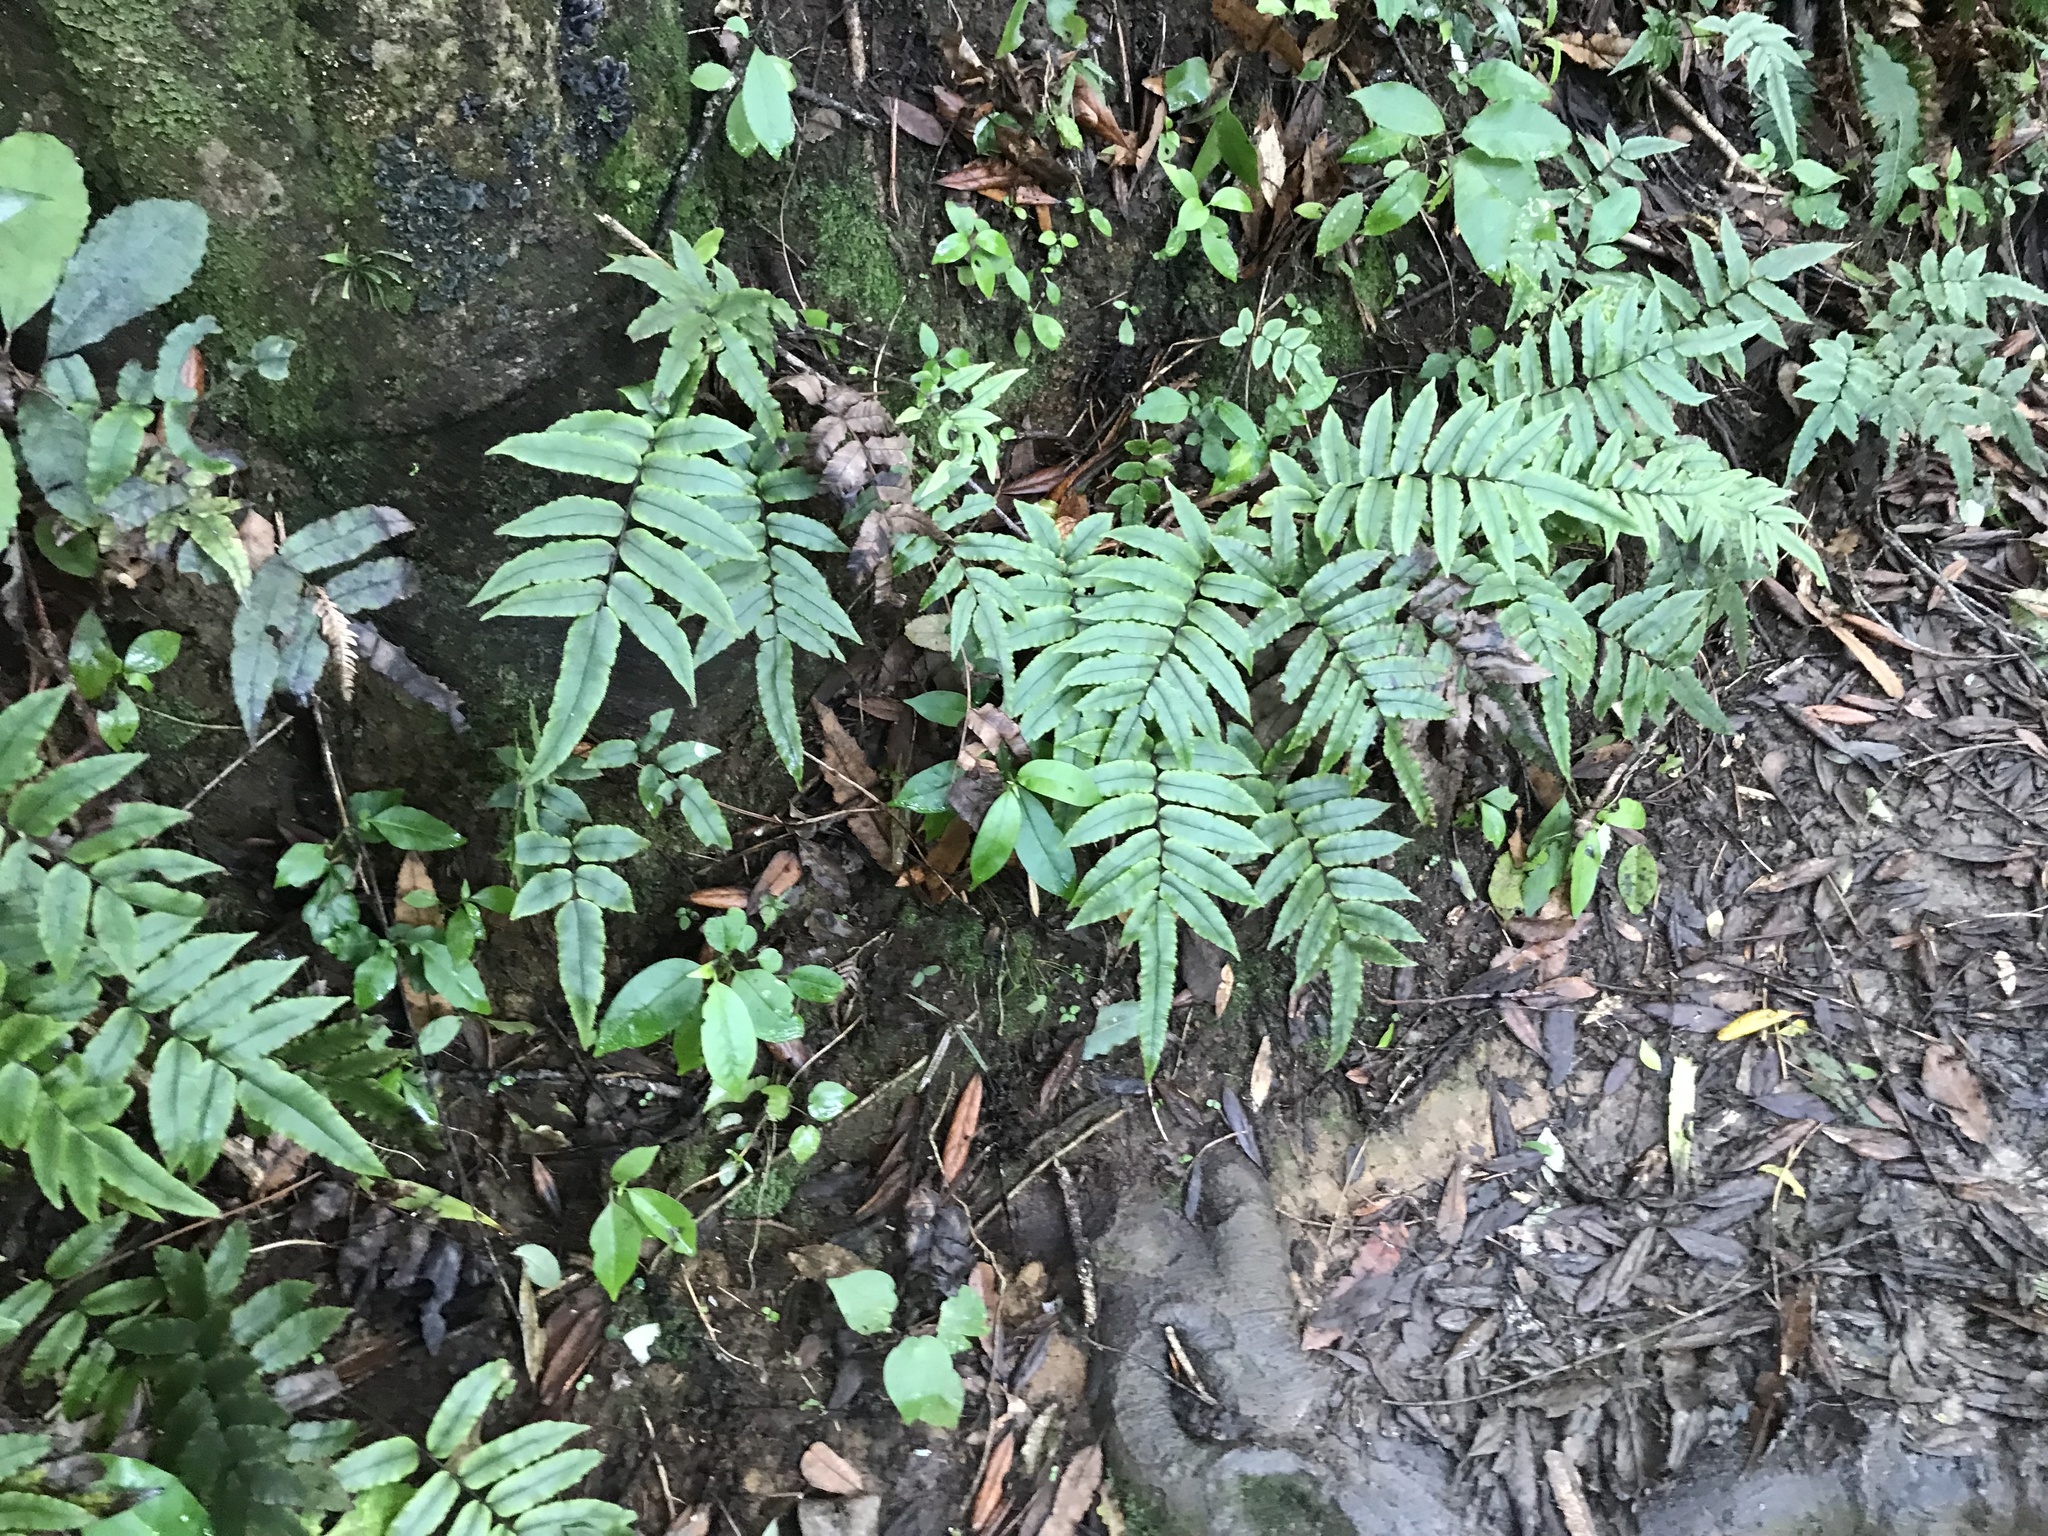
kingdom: Plantae
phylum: Tracheophyta
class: Polypodiopsida
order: Polypodiales
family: Blechnaceae
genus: Parablechnum
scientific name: Parablechnum procerum
